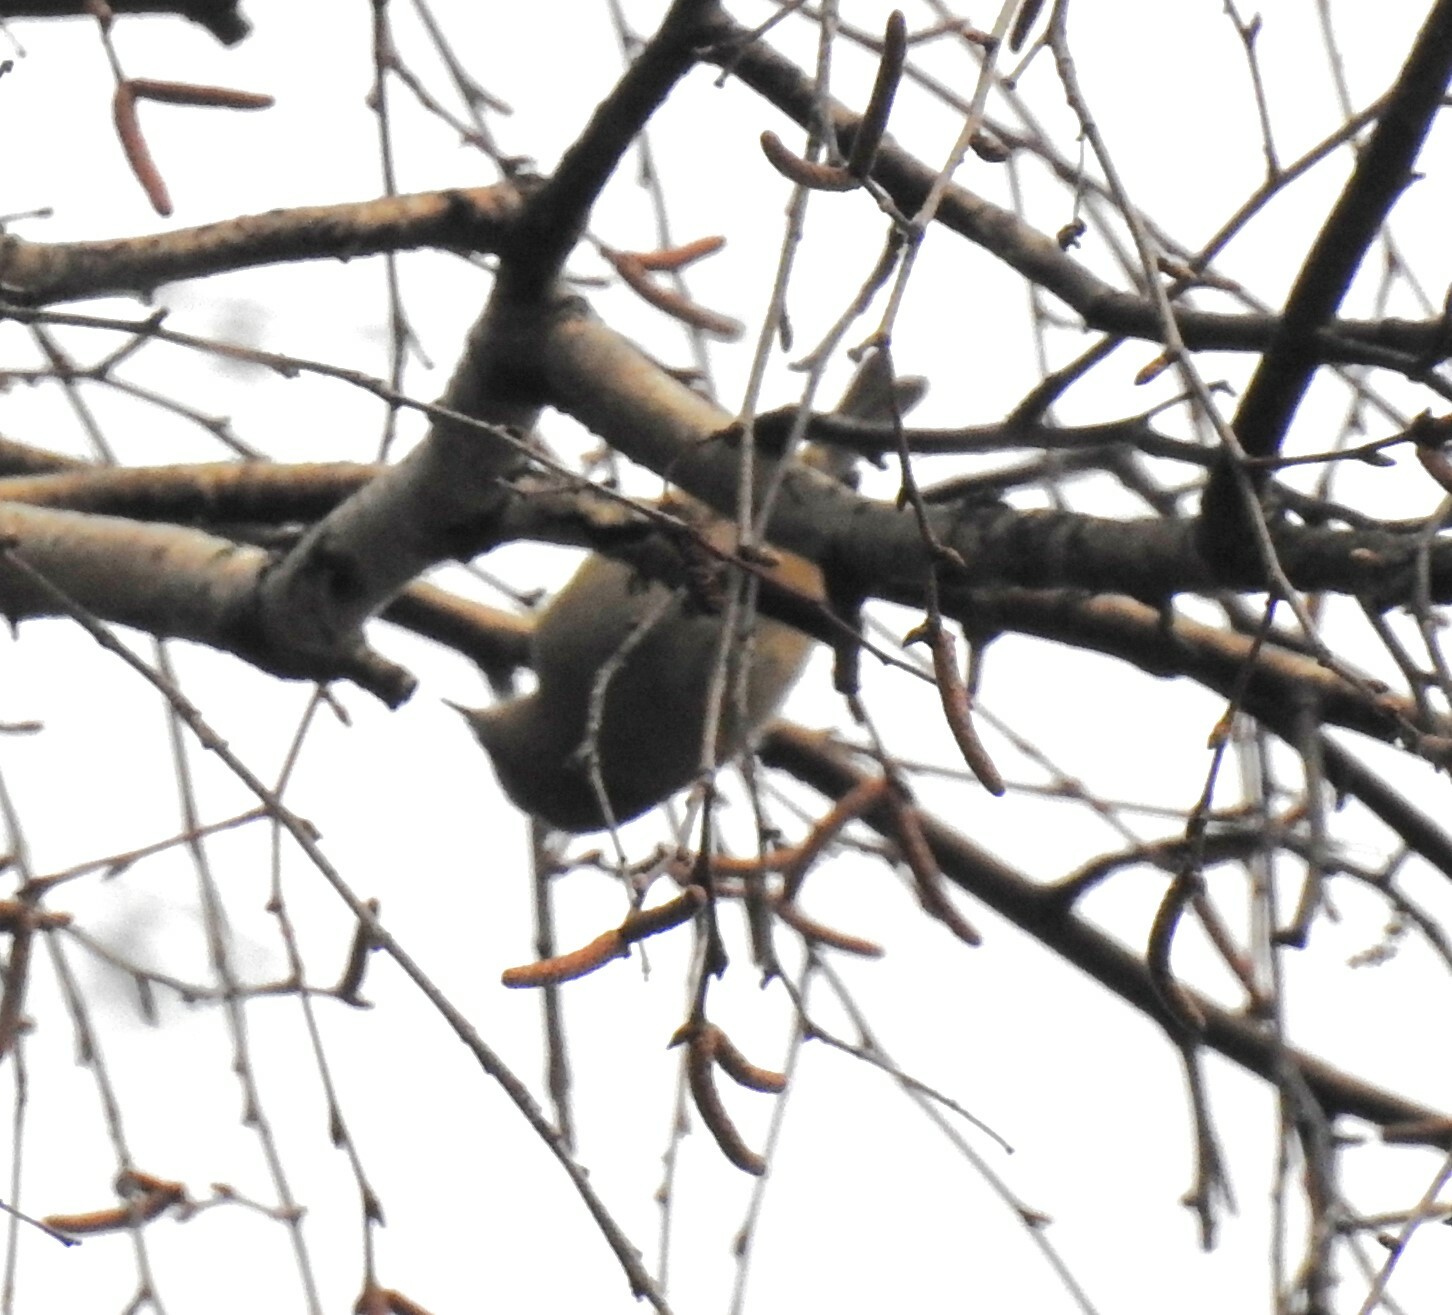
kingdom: Animalia
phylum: Chordata
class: Aves
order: Passeriformes
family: Regulidae
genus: Regulus
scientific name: Regulus regulus
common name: Goldcrest
